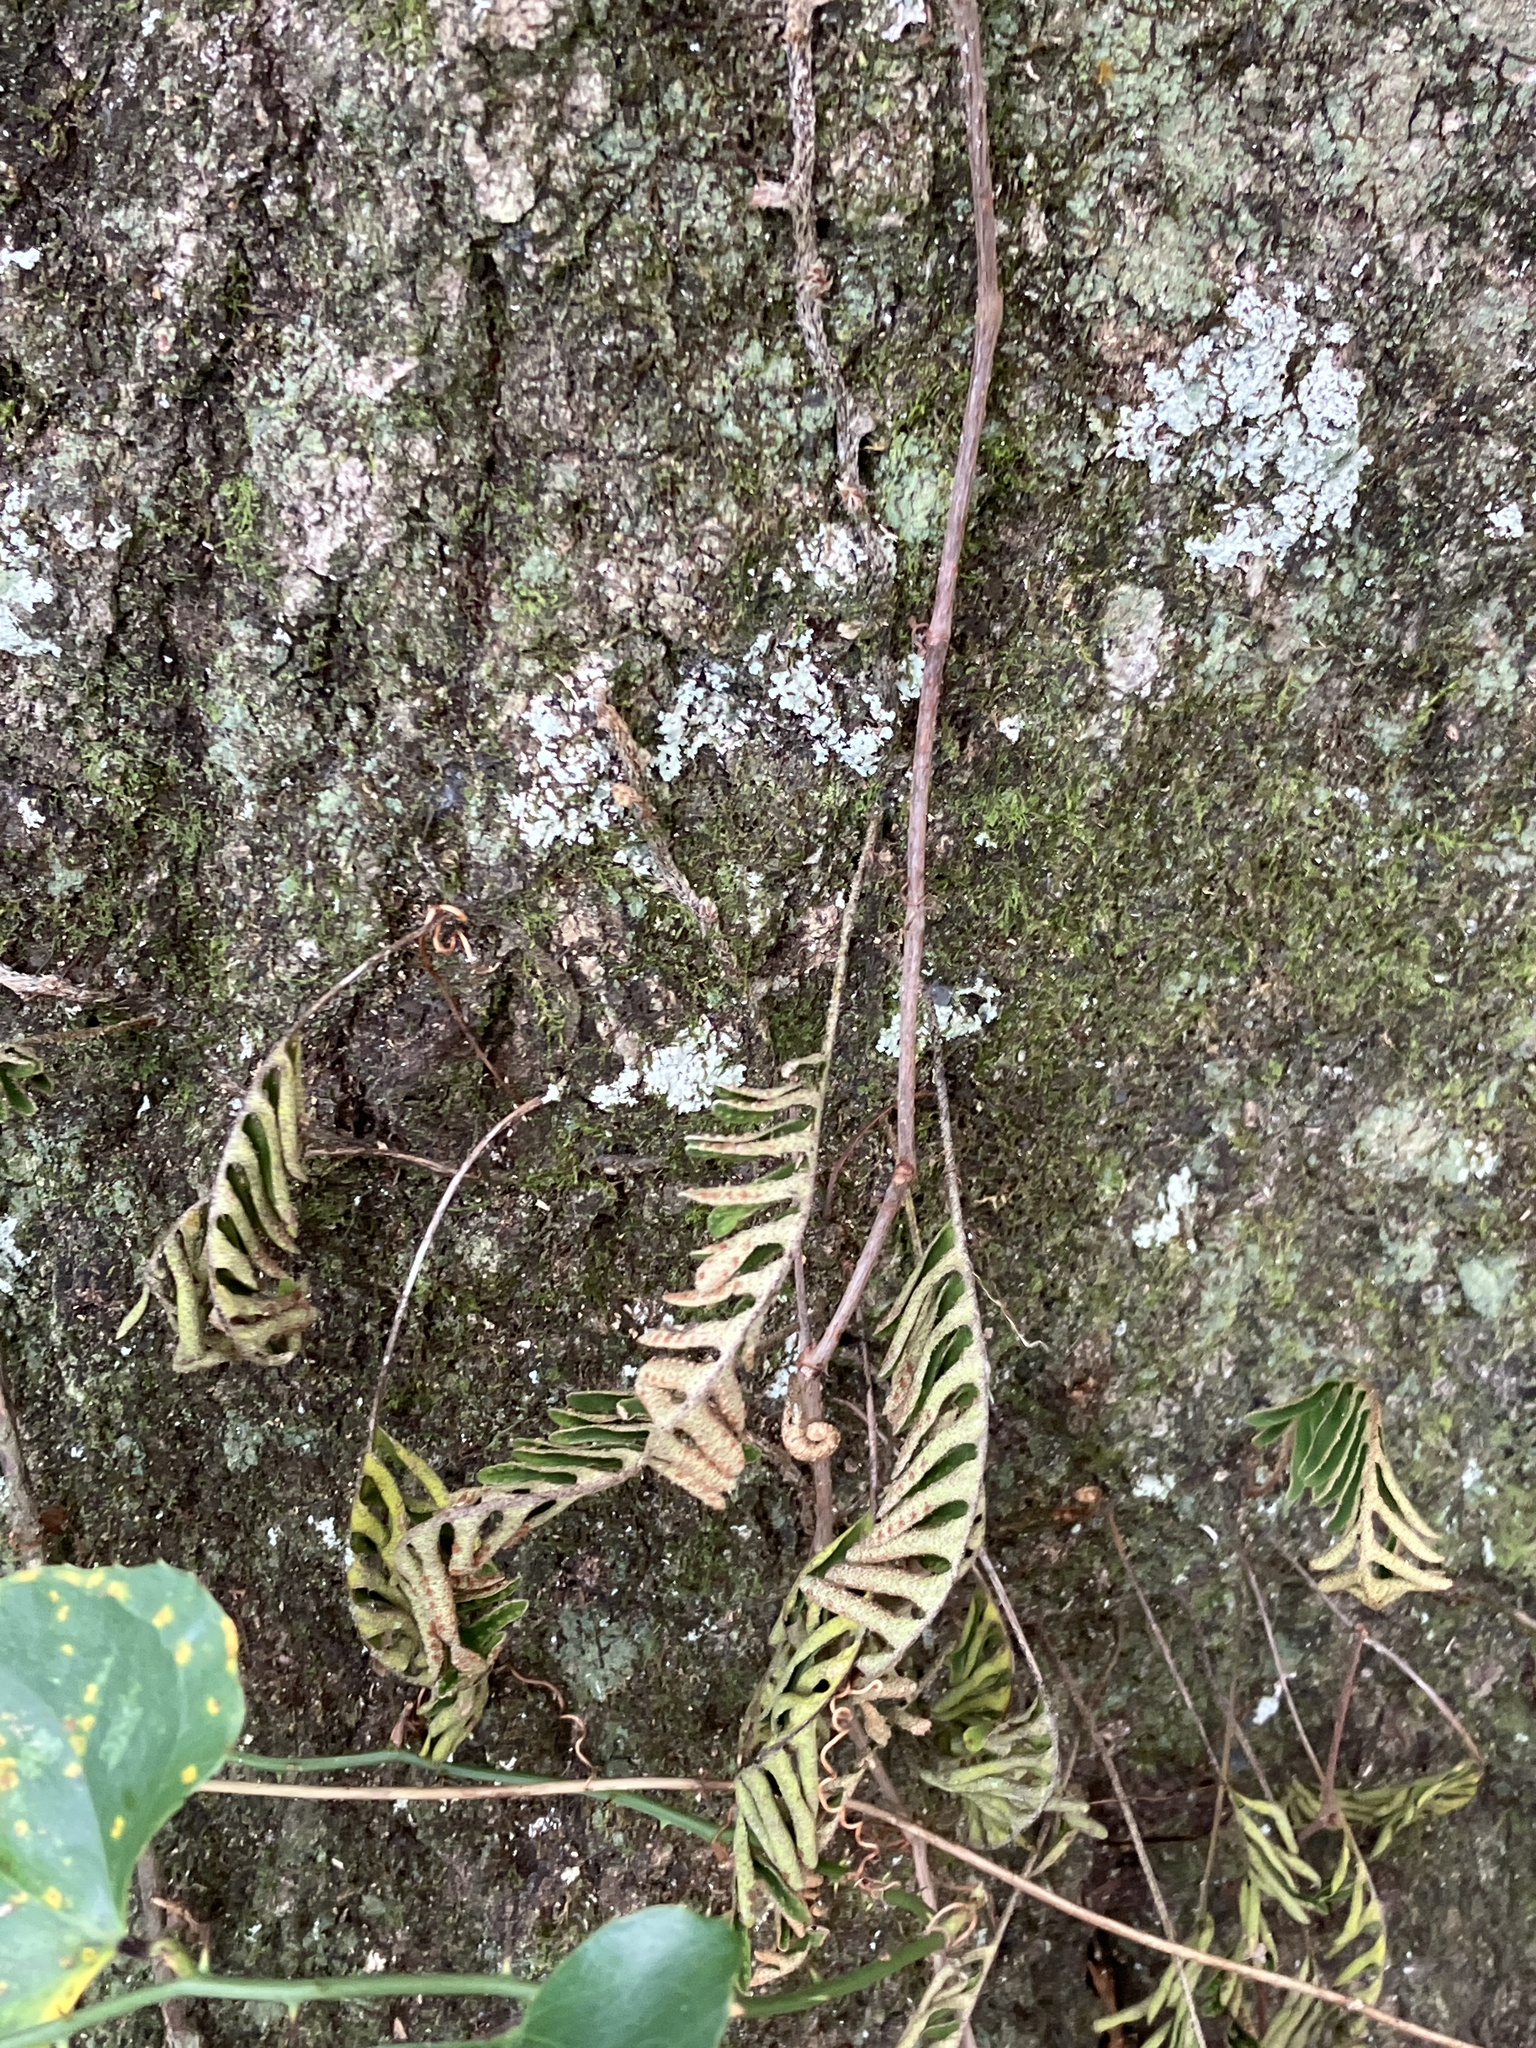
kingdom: Plantae
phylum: Tracheophyta
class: Polypodiopsida
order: Polypodiales
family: Polypodiaceae
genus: Pleopeltis
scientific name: Pleopeltis michauxiana
